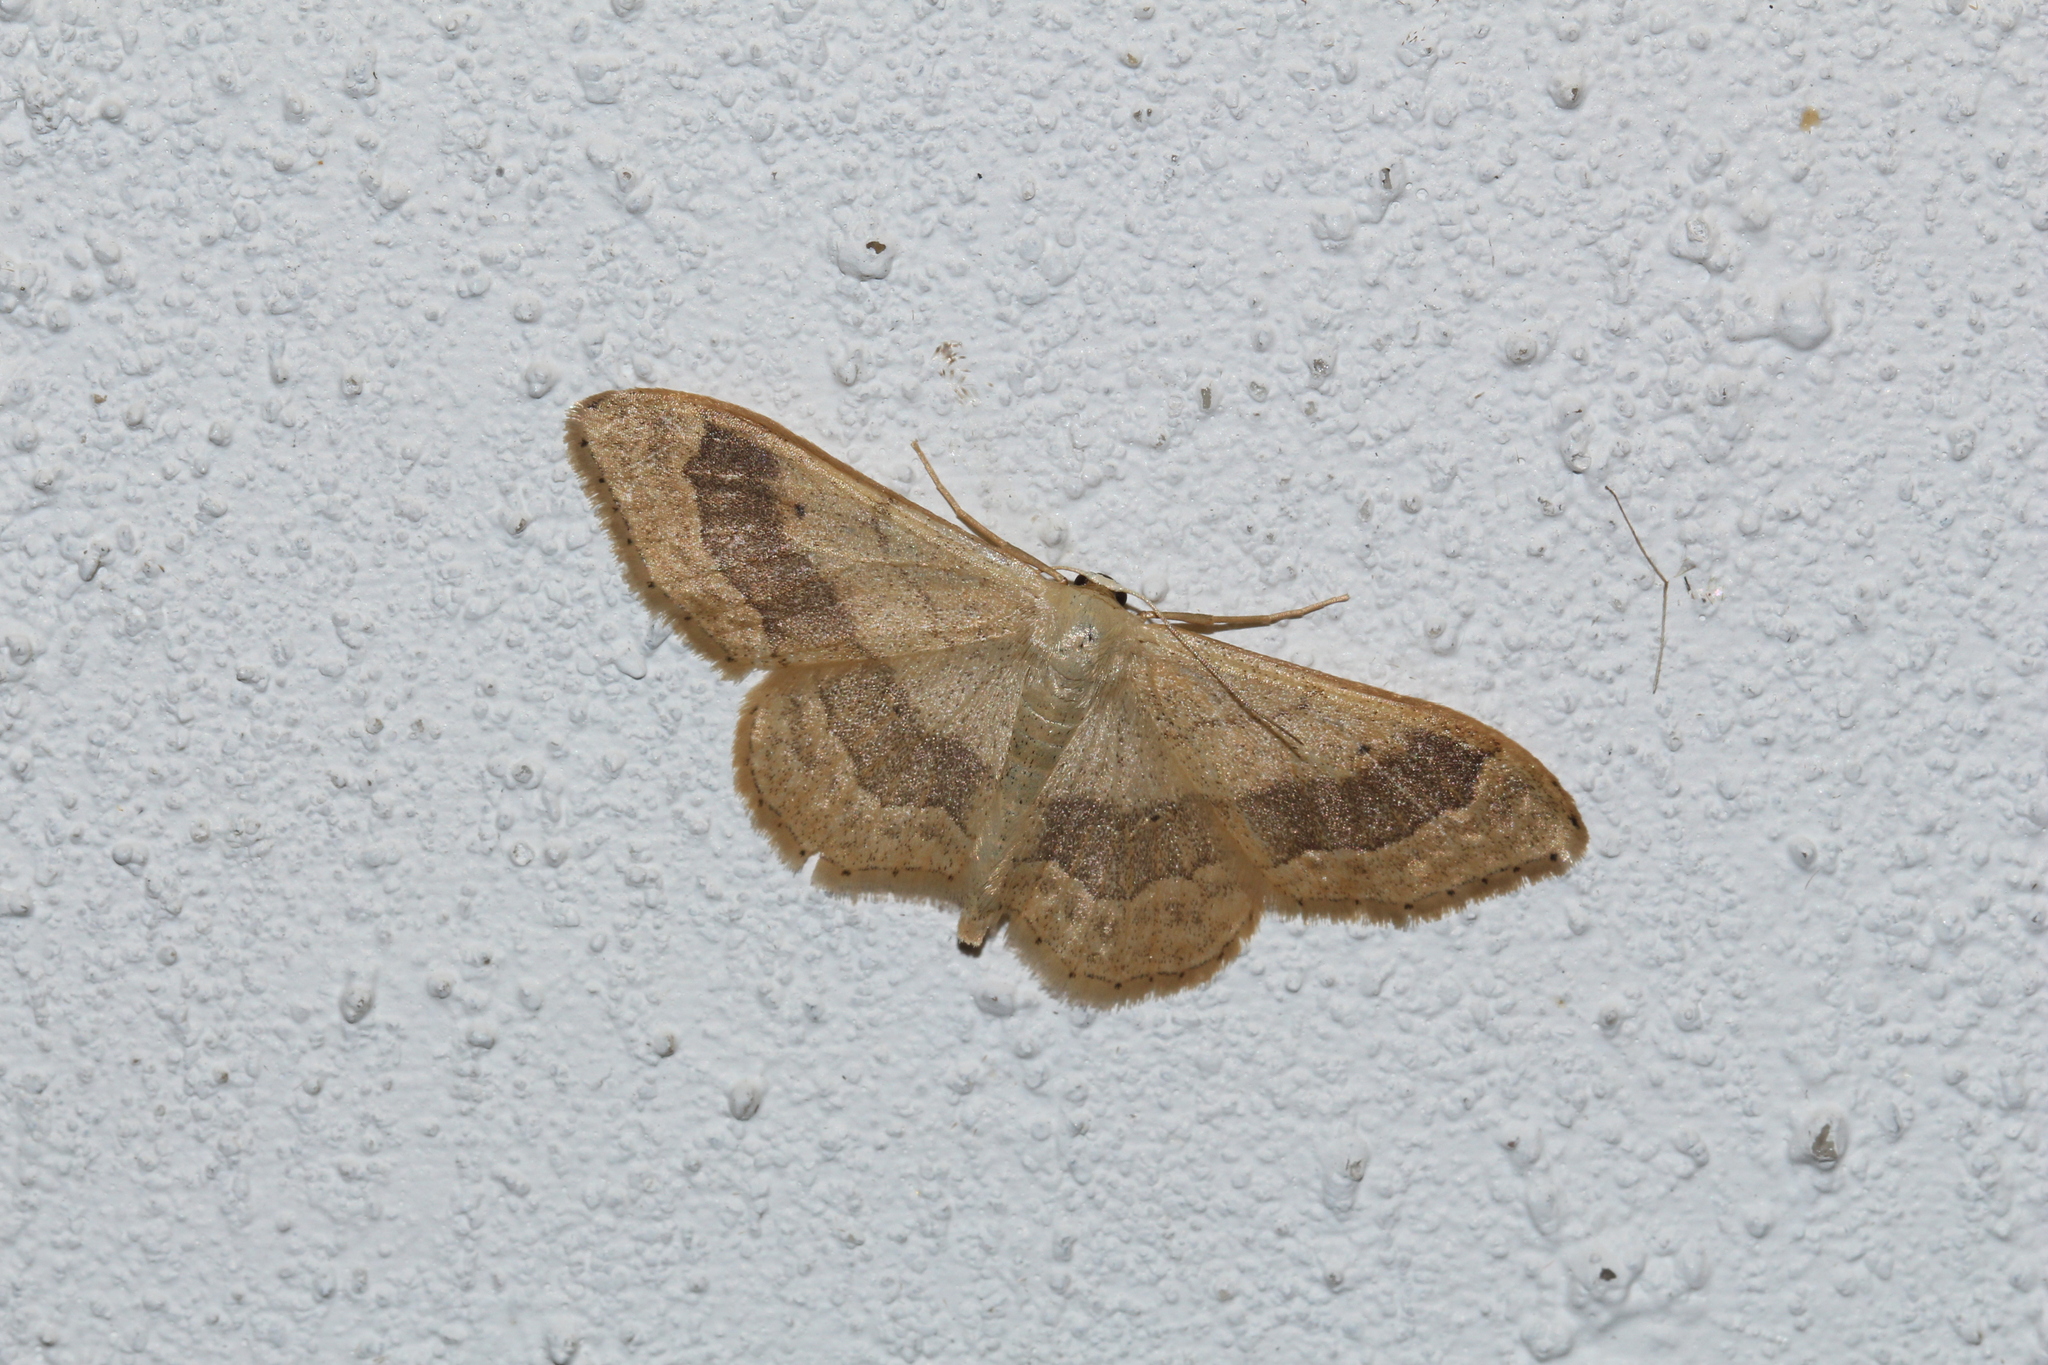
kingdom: Animalia
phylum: Arthropoda
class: Insecta
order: Lepidoptera
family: Geometridae
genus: Idaea
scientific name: Idaea aversata
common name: Riband wave
